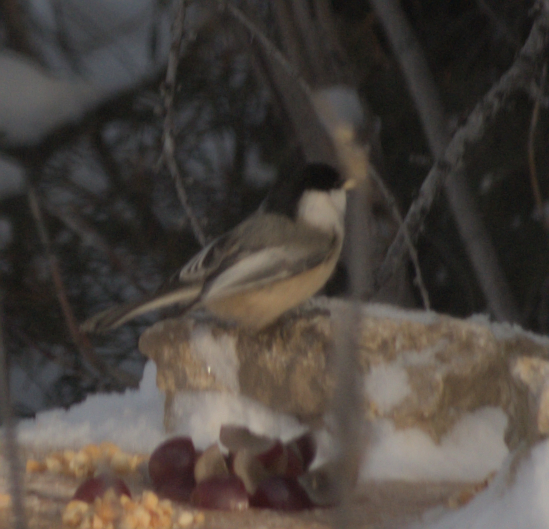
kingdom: Animalia
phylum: Chordata
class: Aves
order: Passeriformes
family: Paridae
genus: Poecile
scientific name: Poecile atricapillus
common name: Black-capped chickadee
